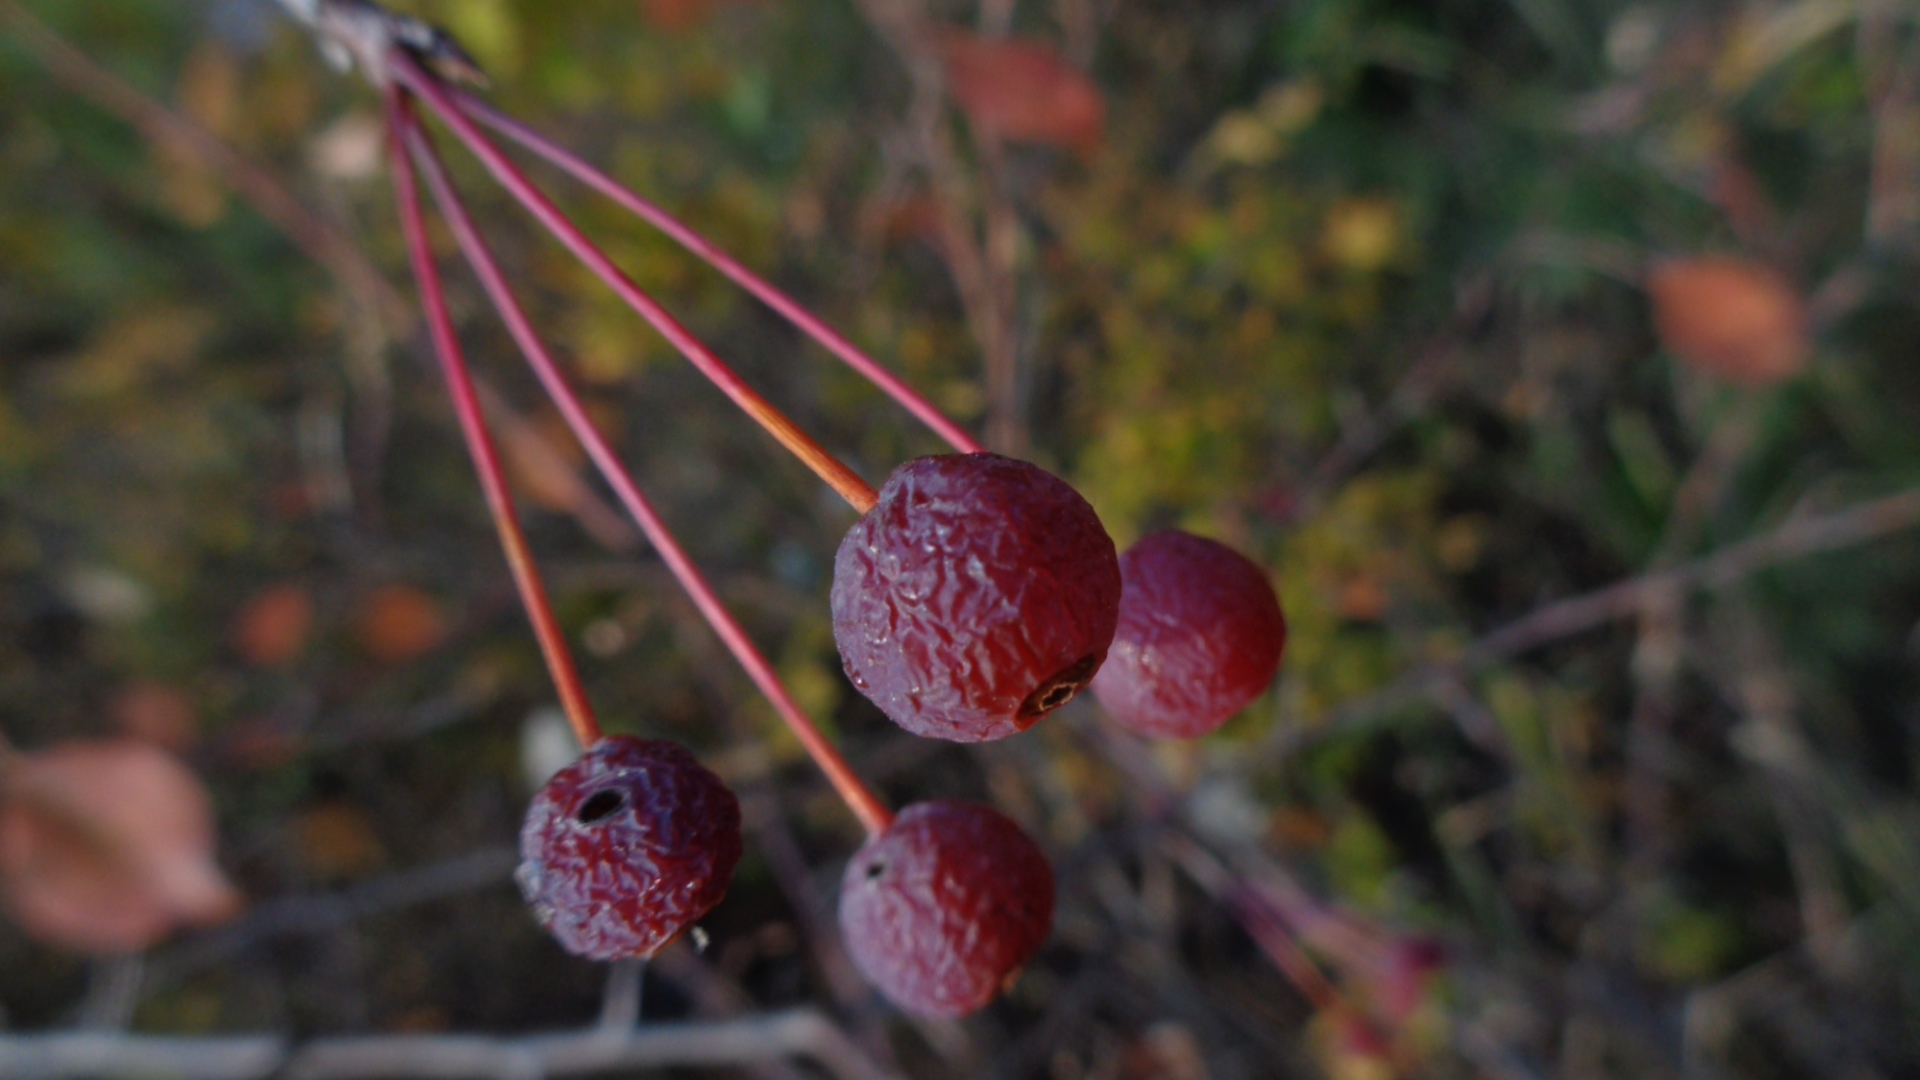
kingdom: Plantae
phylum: Tracheophyta
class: Magnoliopsida
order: Rosales
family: Rosaceae
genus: Malus
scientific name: Malus baccata
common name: Siberian crab
